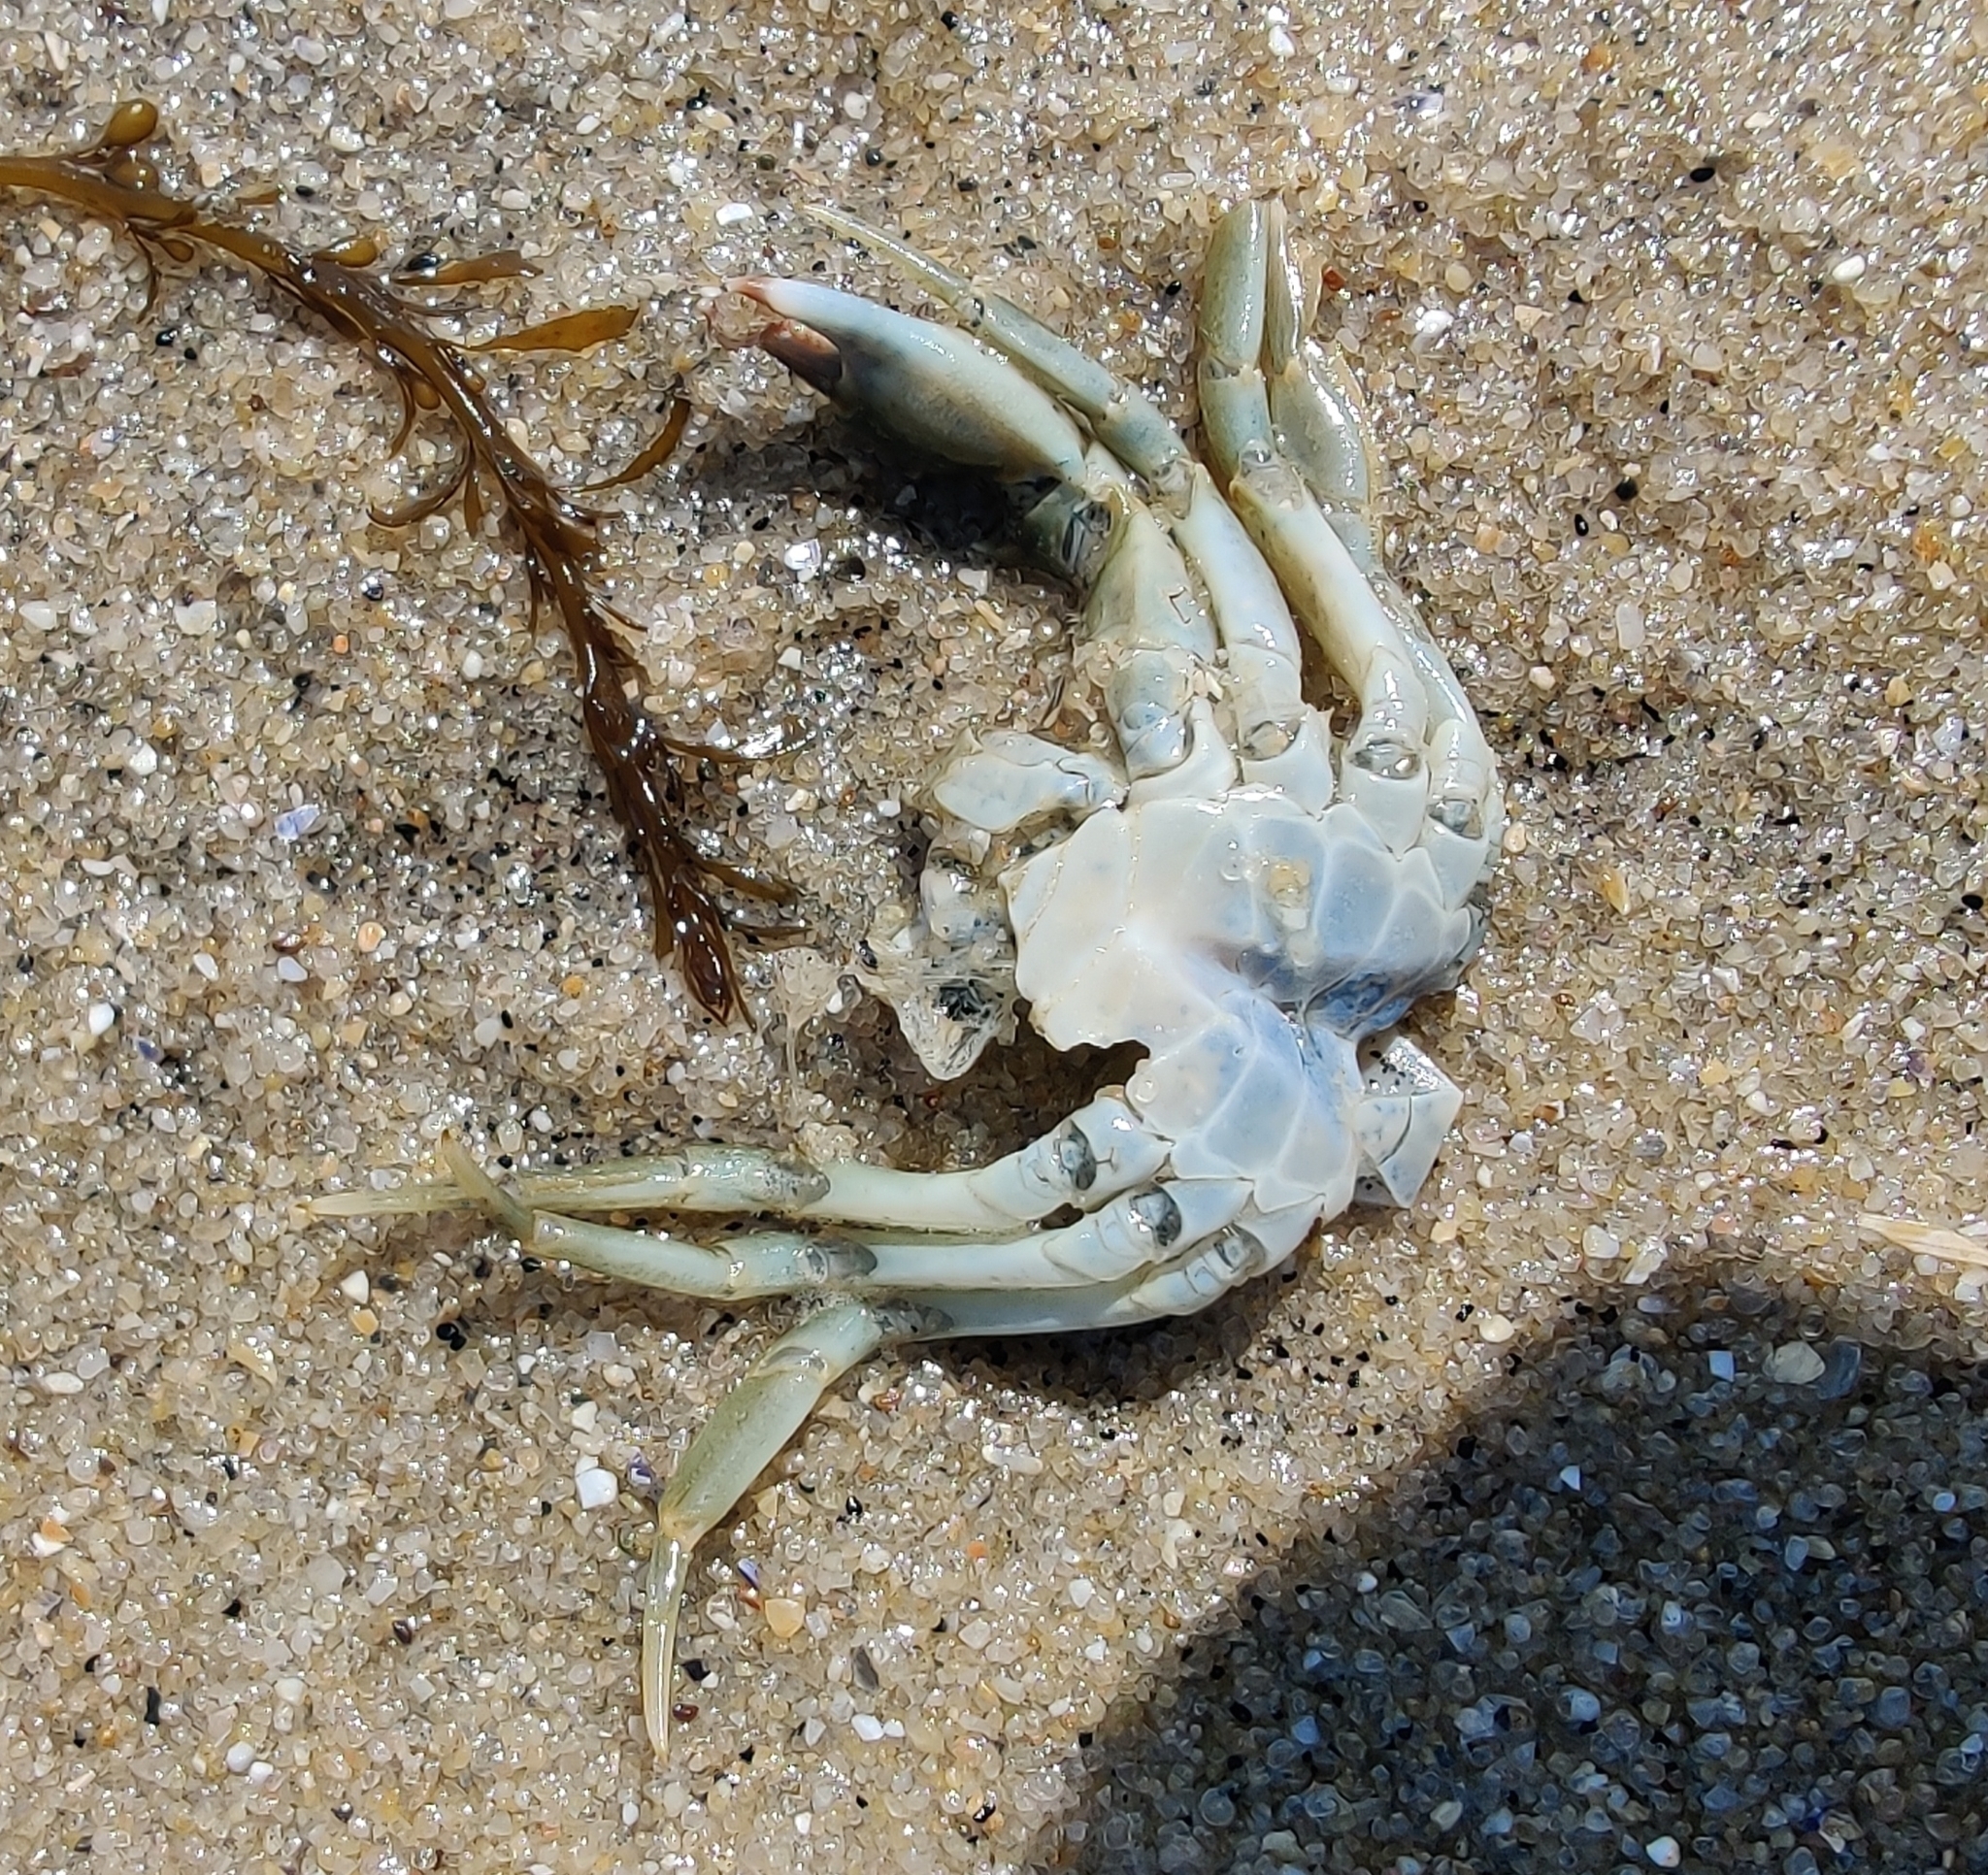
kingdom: Animalia
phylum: Arthropoda
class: Malacostraca
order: Decapoda
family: Carcinidae
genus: Carcinus
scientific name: Carcinus maenas
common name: European green crab
